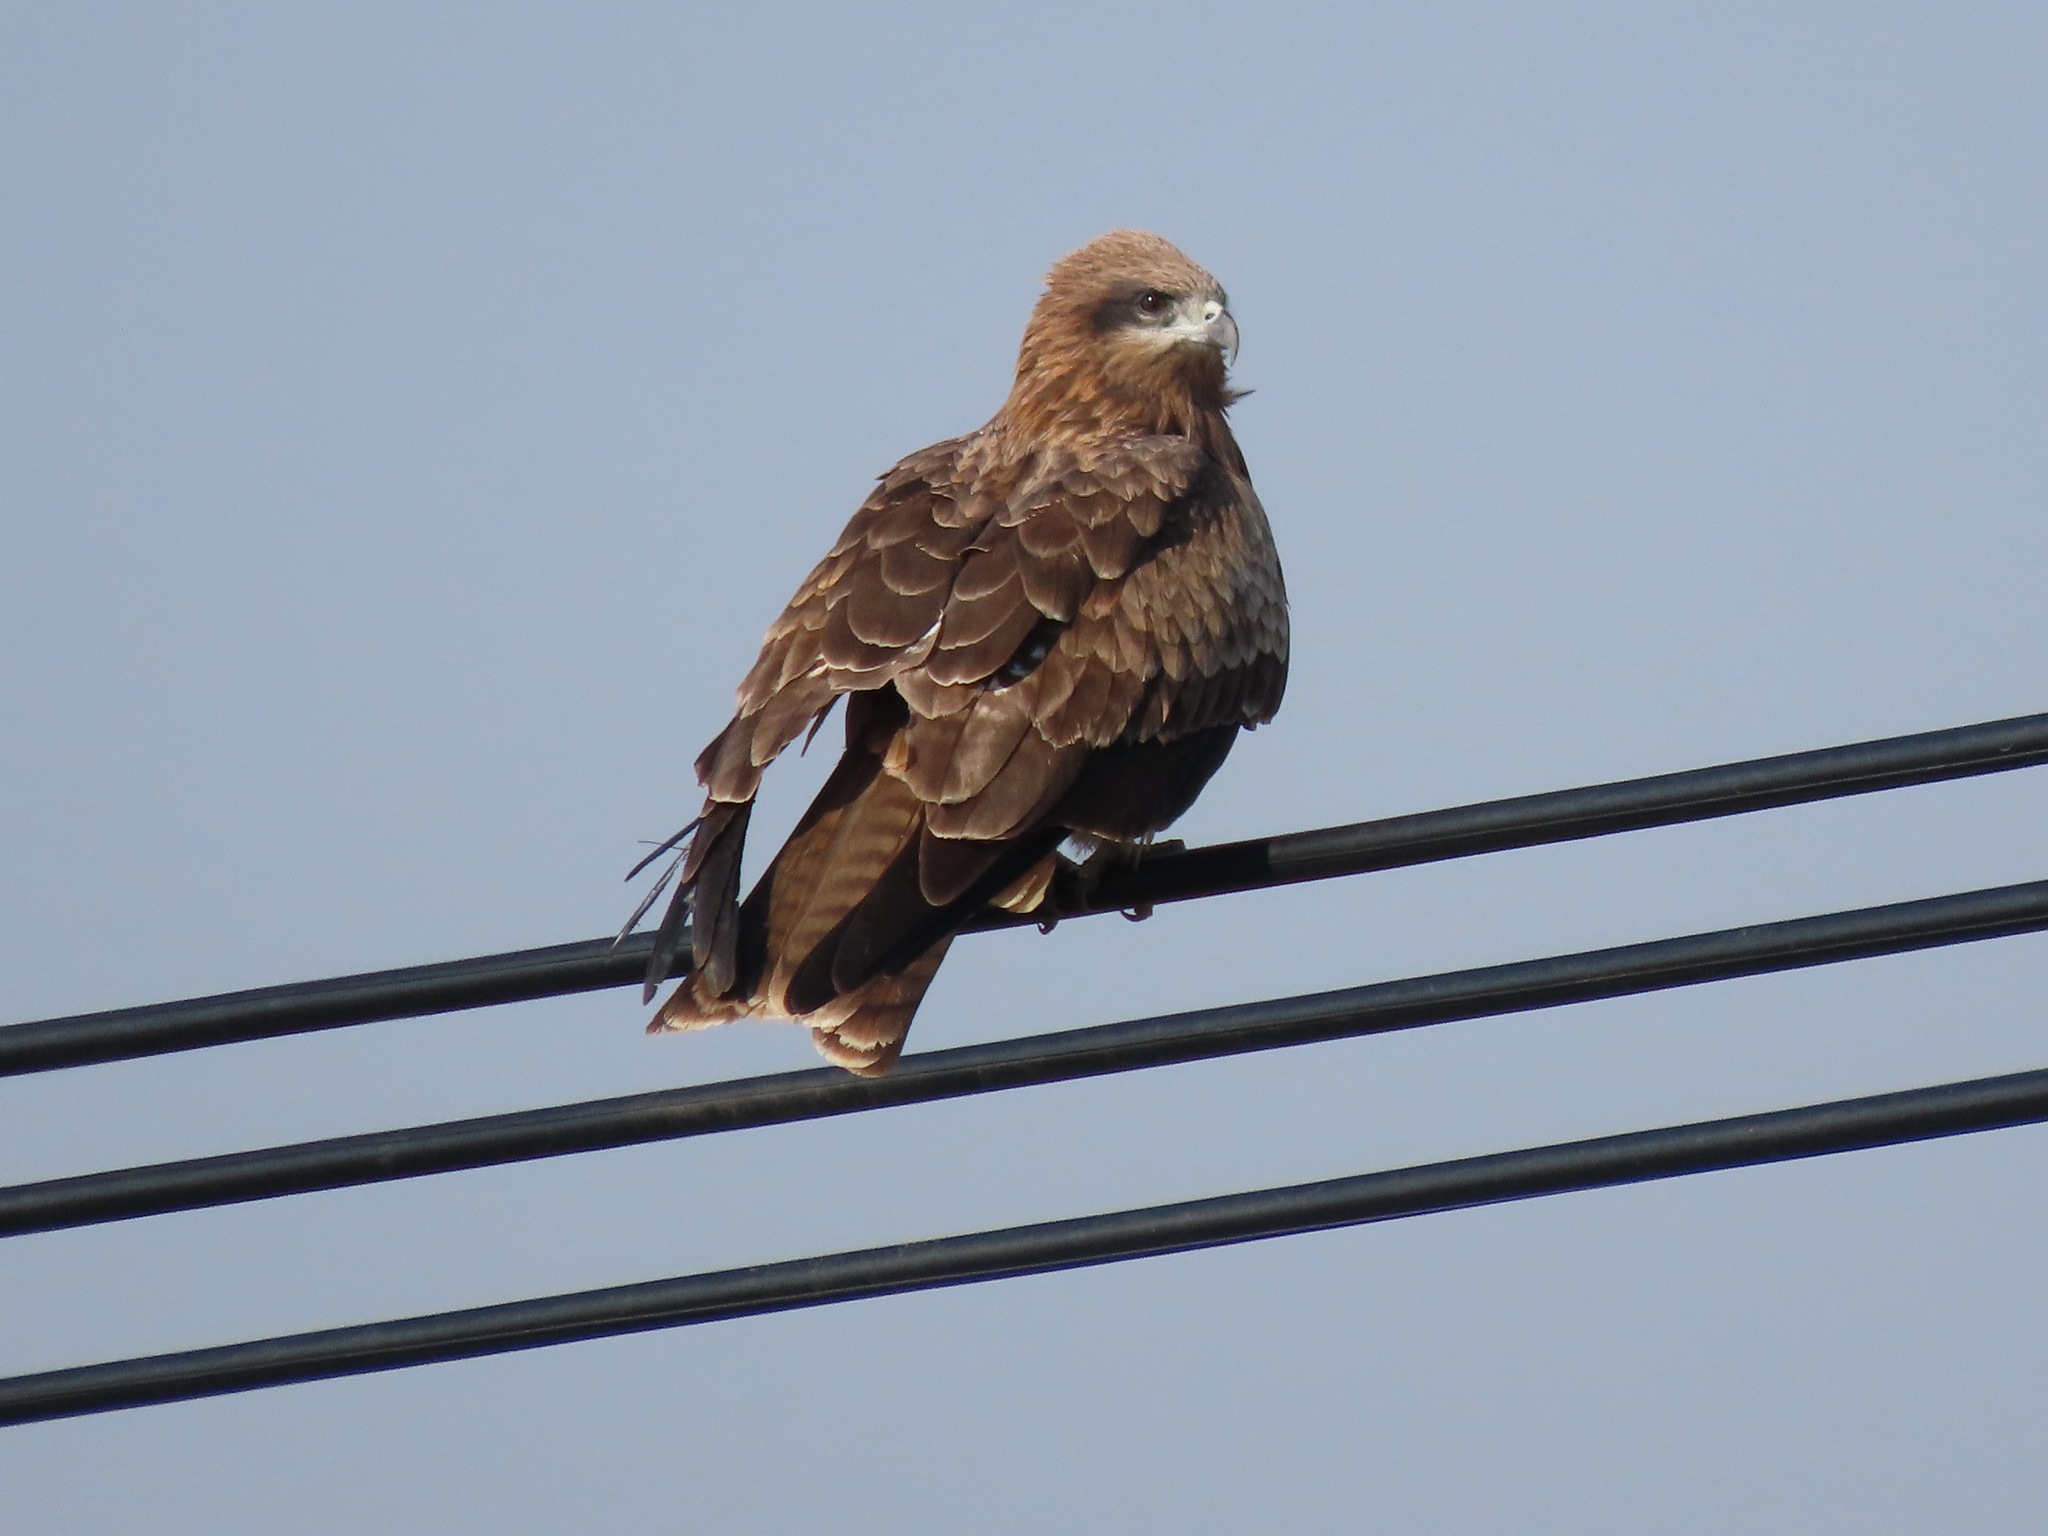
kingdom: Animalia
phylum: Chordata
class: Aves
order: Accipitriformes
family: Accipitridae
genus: Milvus
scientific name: Milvus migrans
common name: Black kite
